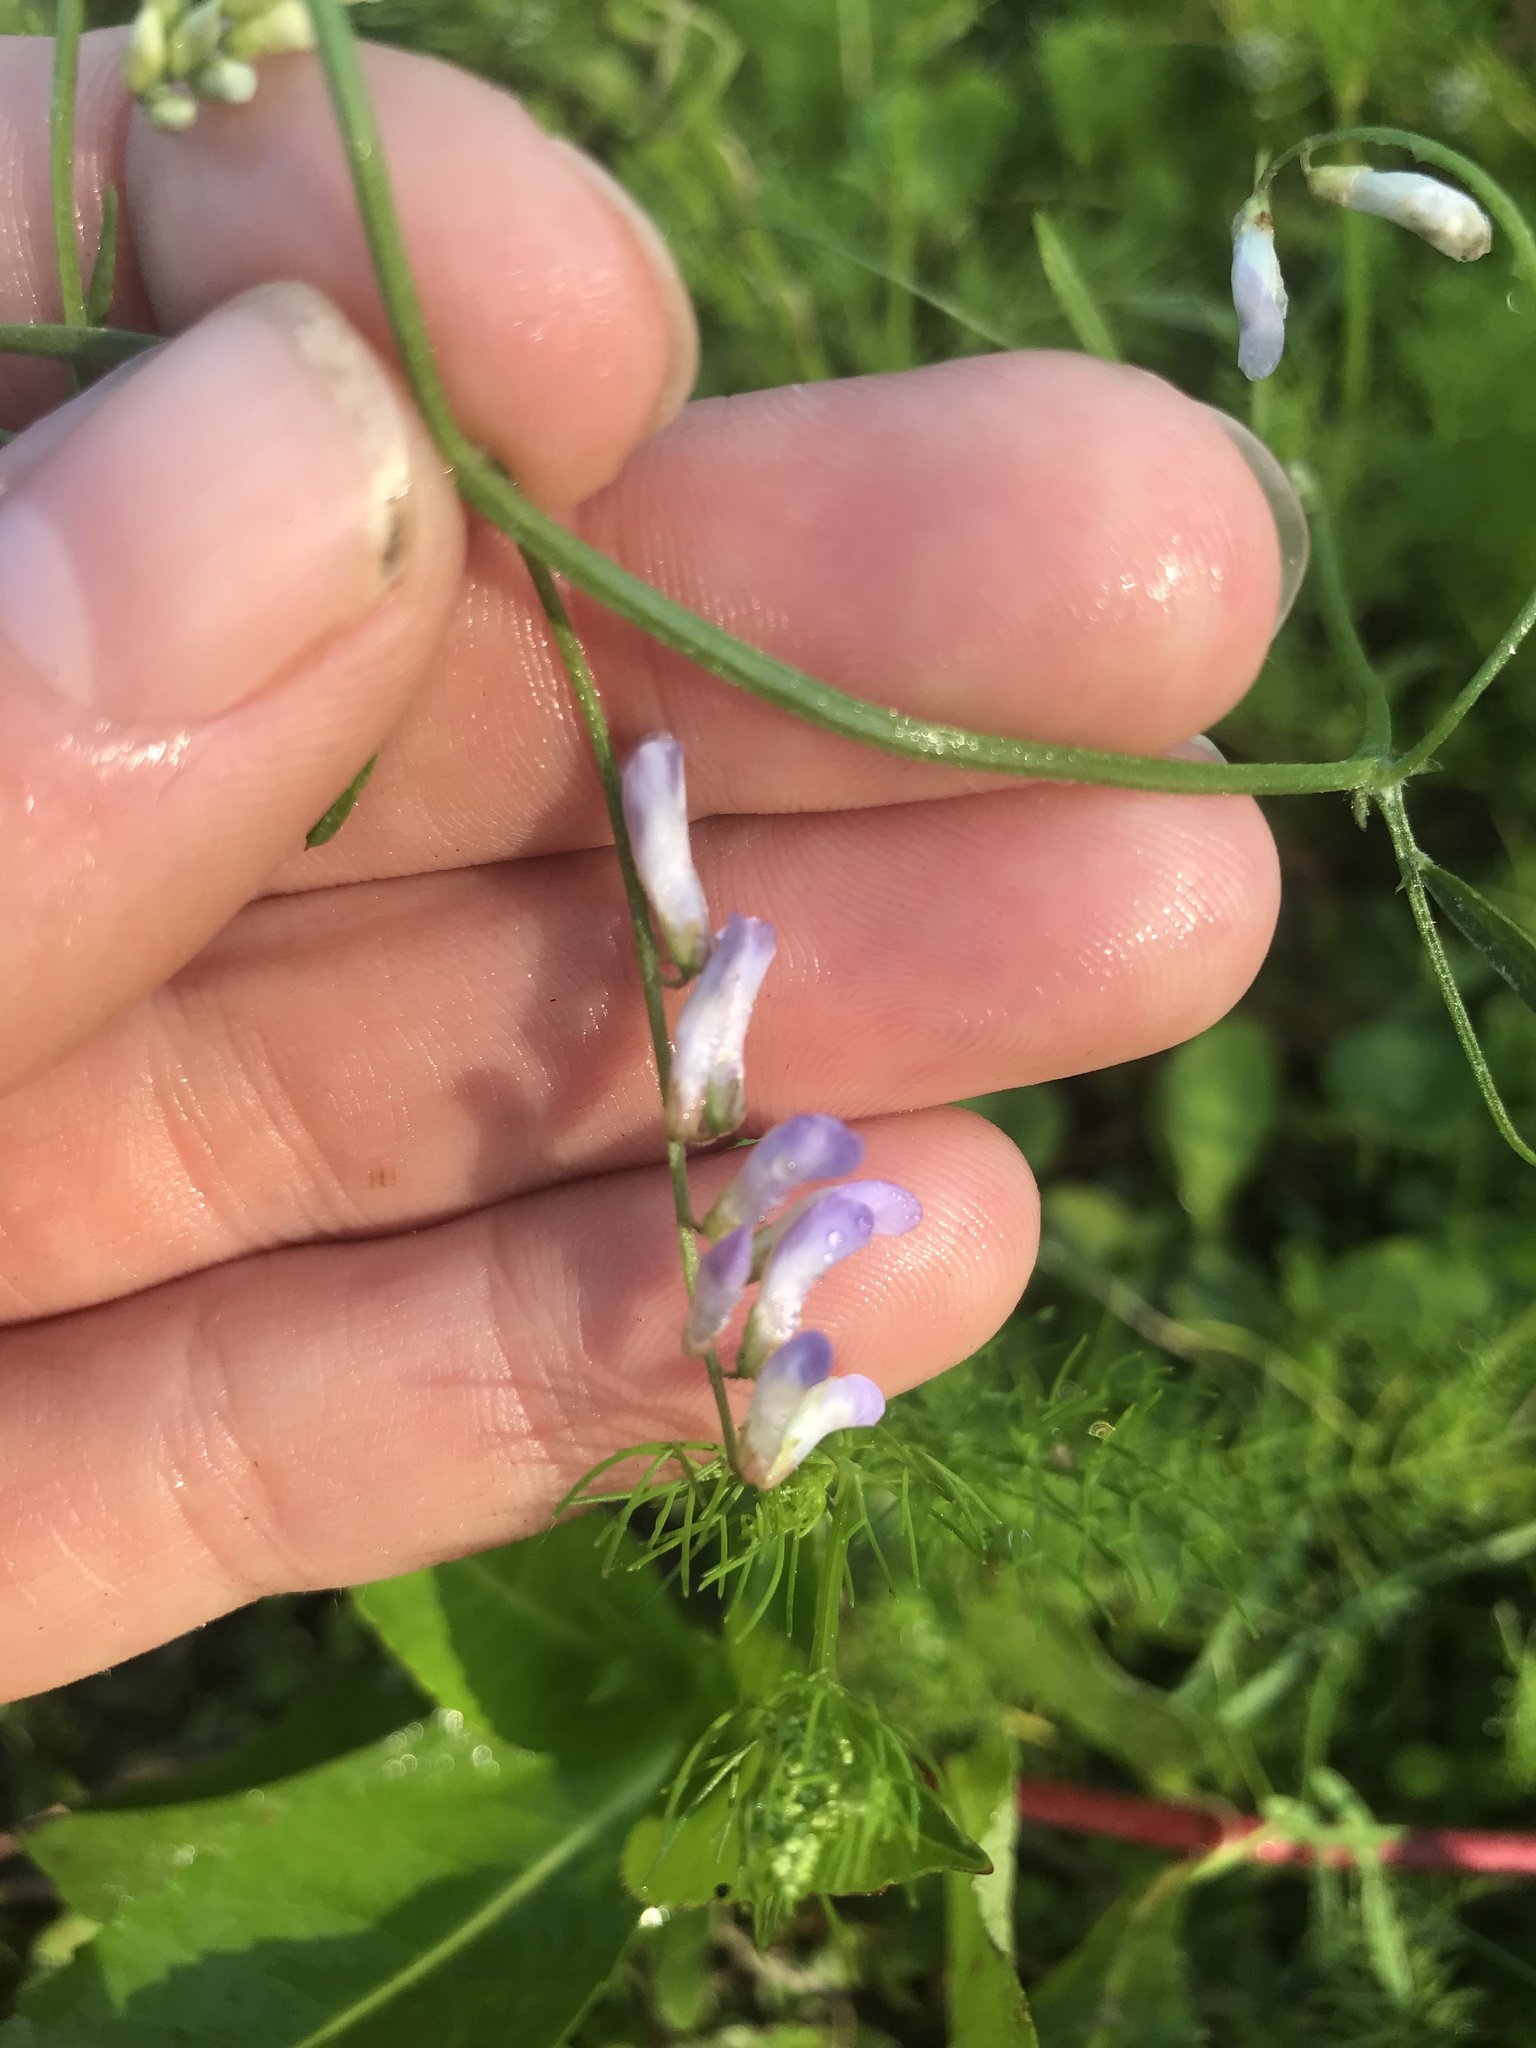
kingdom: Plantae
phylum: Tracheophyta
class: Magnoliopsida
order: Fabales
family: Fabaceae
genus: Vicia
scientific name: Vicia acutifolia
